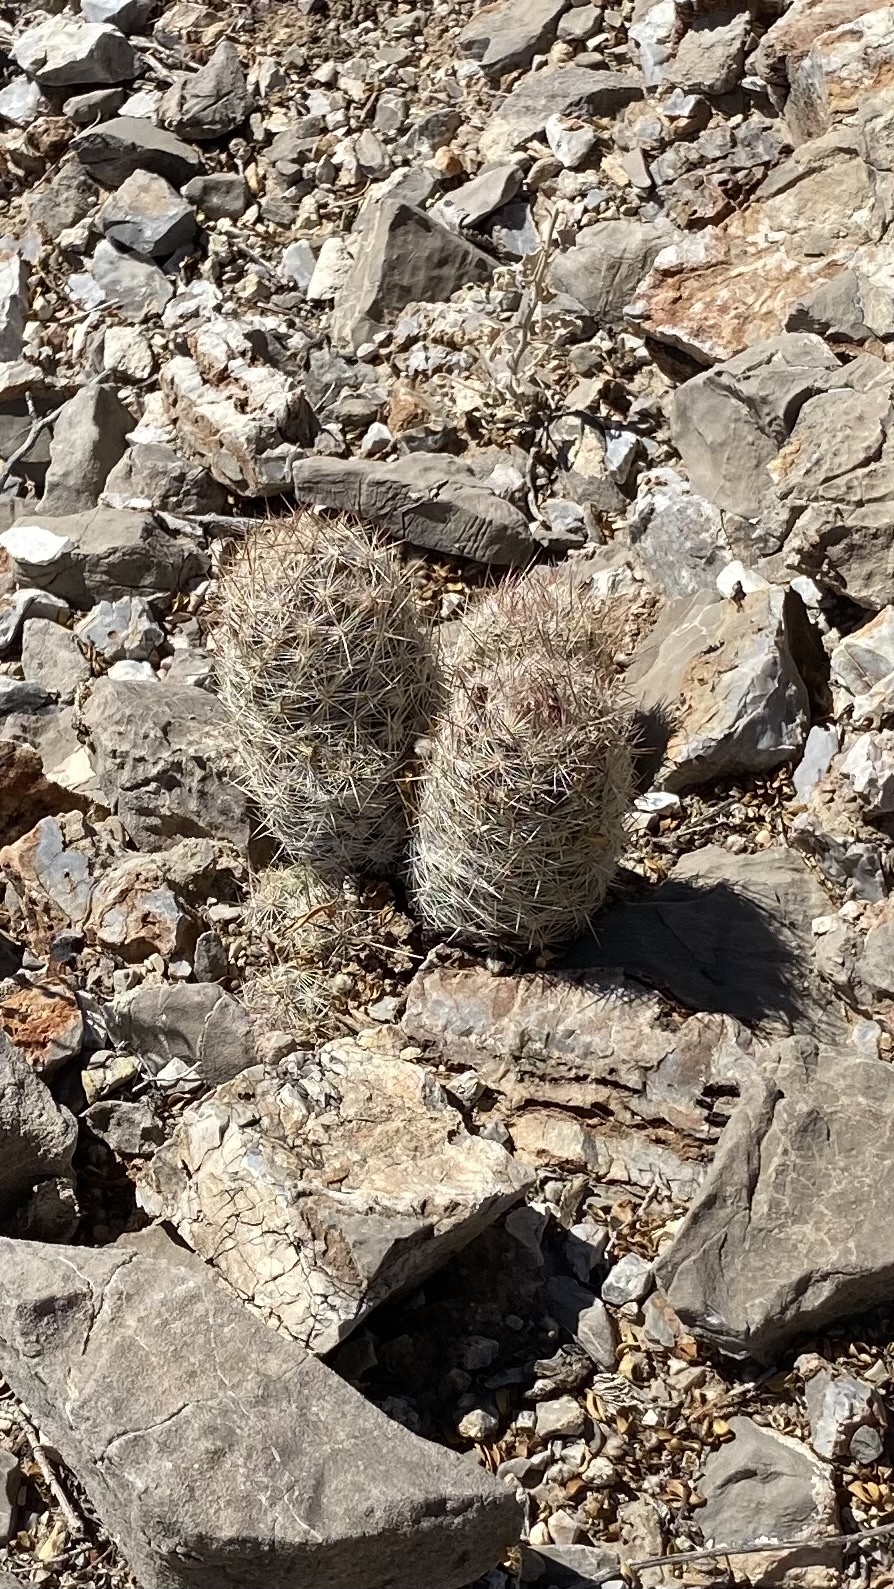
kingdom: Plantae
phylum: Tracheophyta
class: Magnoliopsida
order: Caryophyllales
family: Cactaceae
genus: Pelecyphora
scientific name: Pelecyphora tuberculosa
